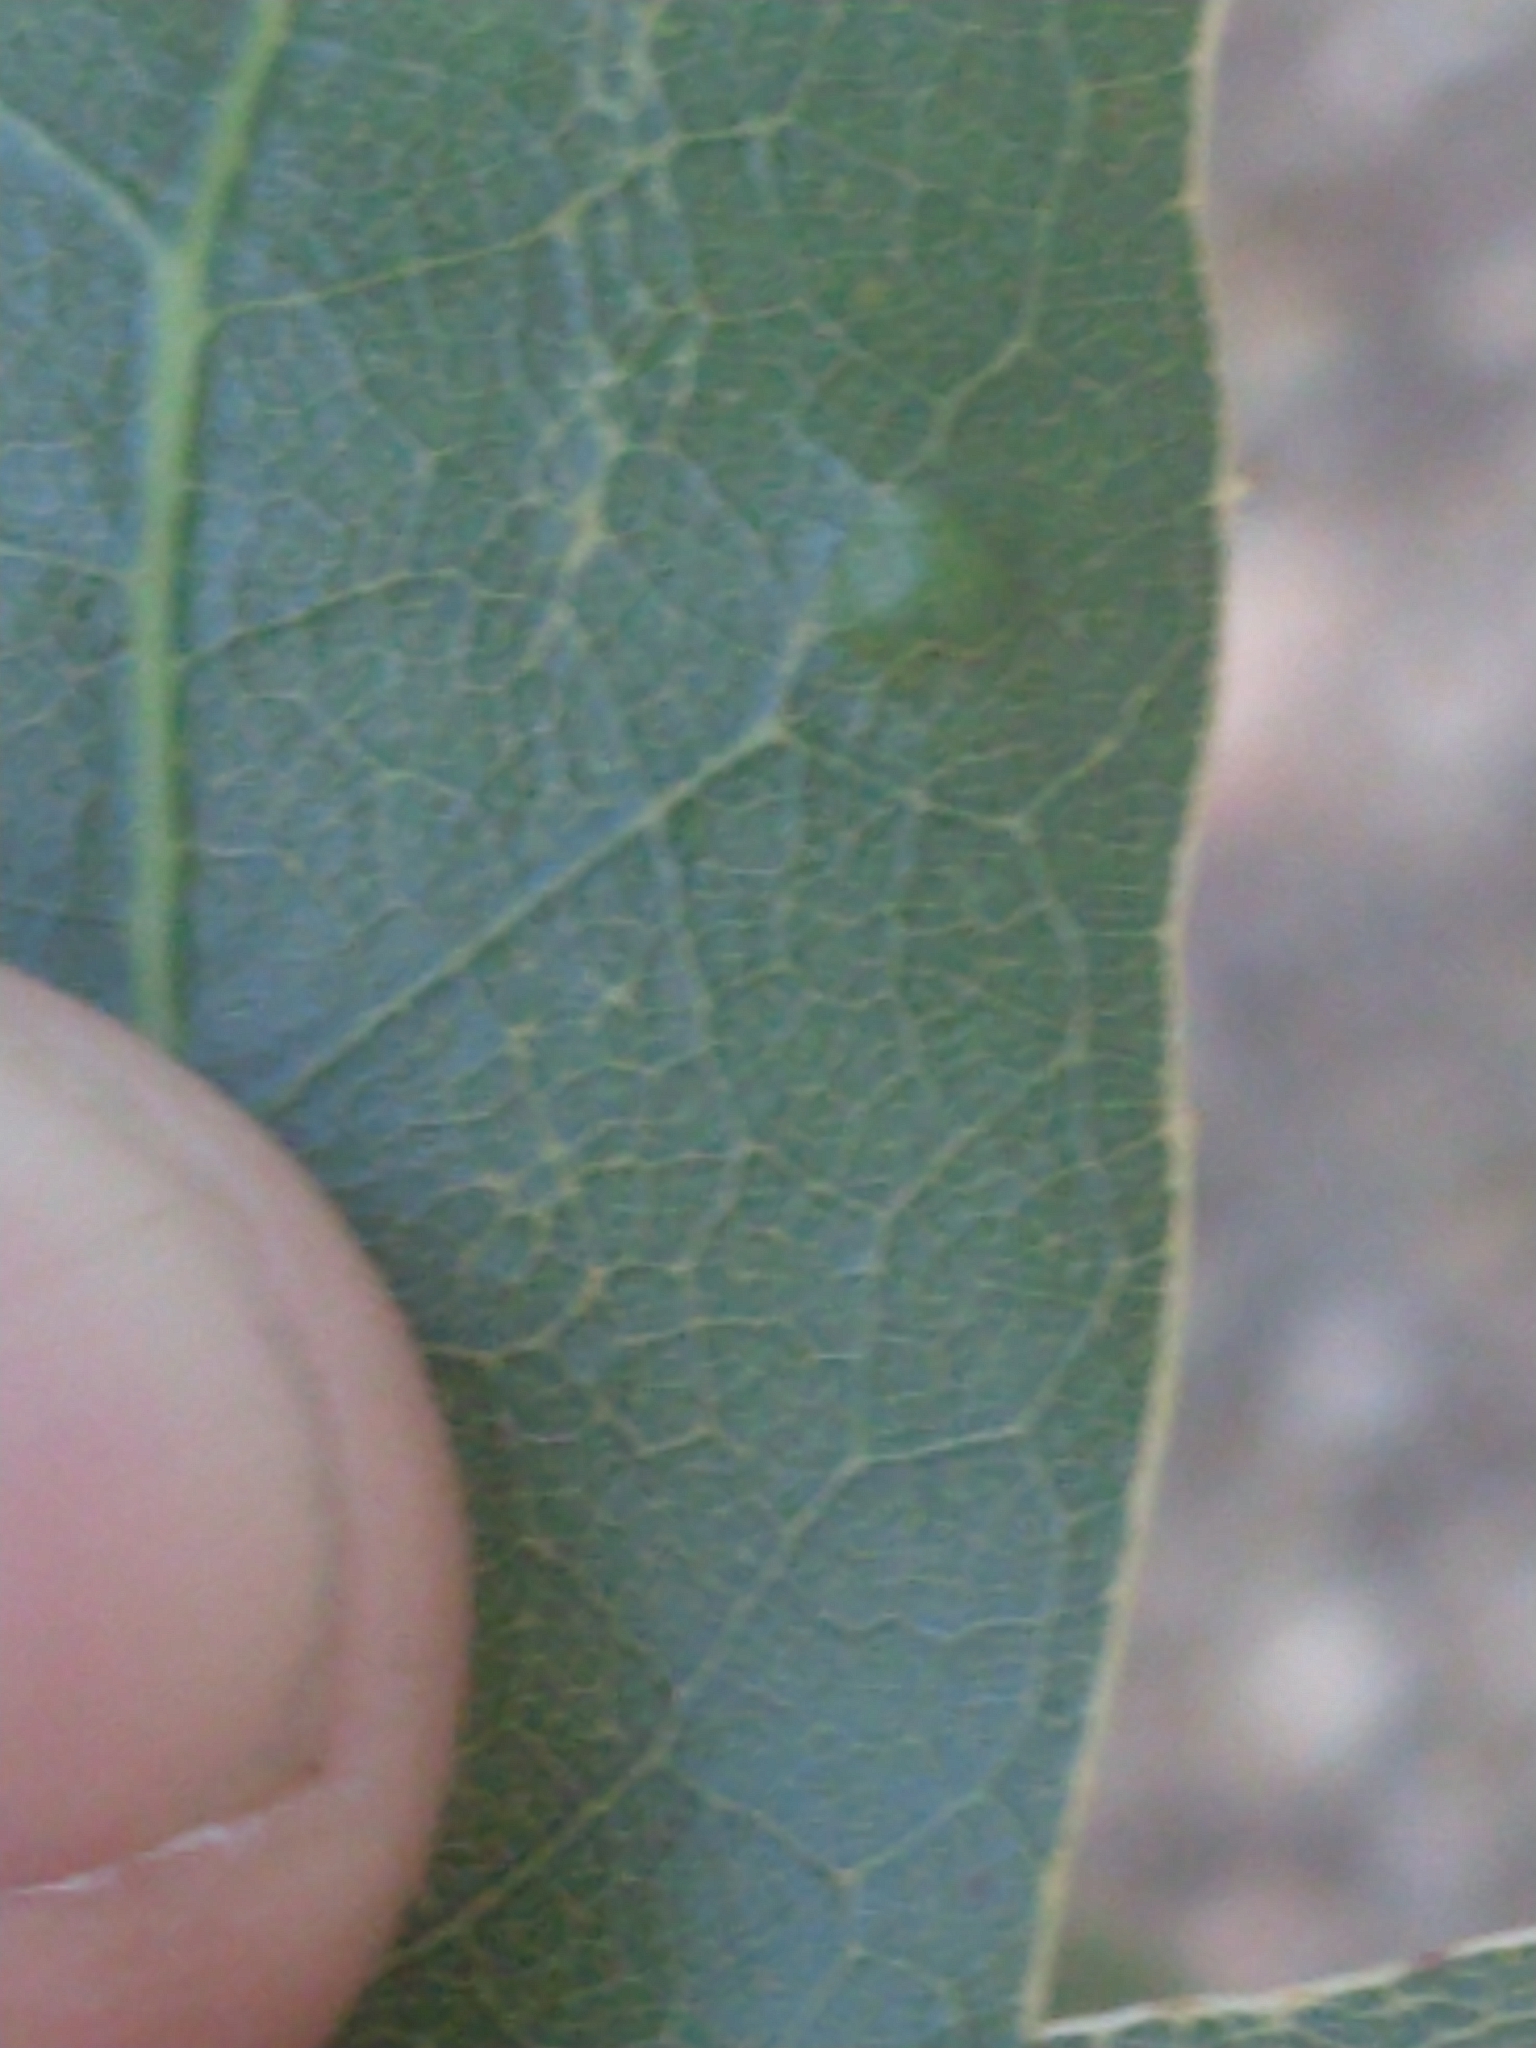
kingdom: Animalia
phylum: Arthropoda
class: Arachnida
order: Trombidiformes
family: Eriophyidae
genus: Aceria
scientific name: Aceria
